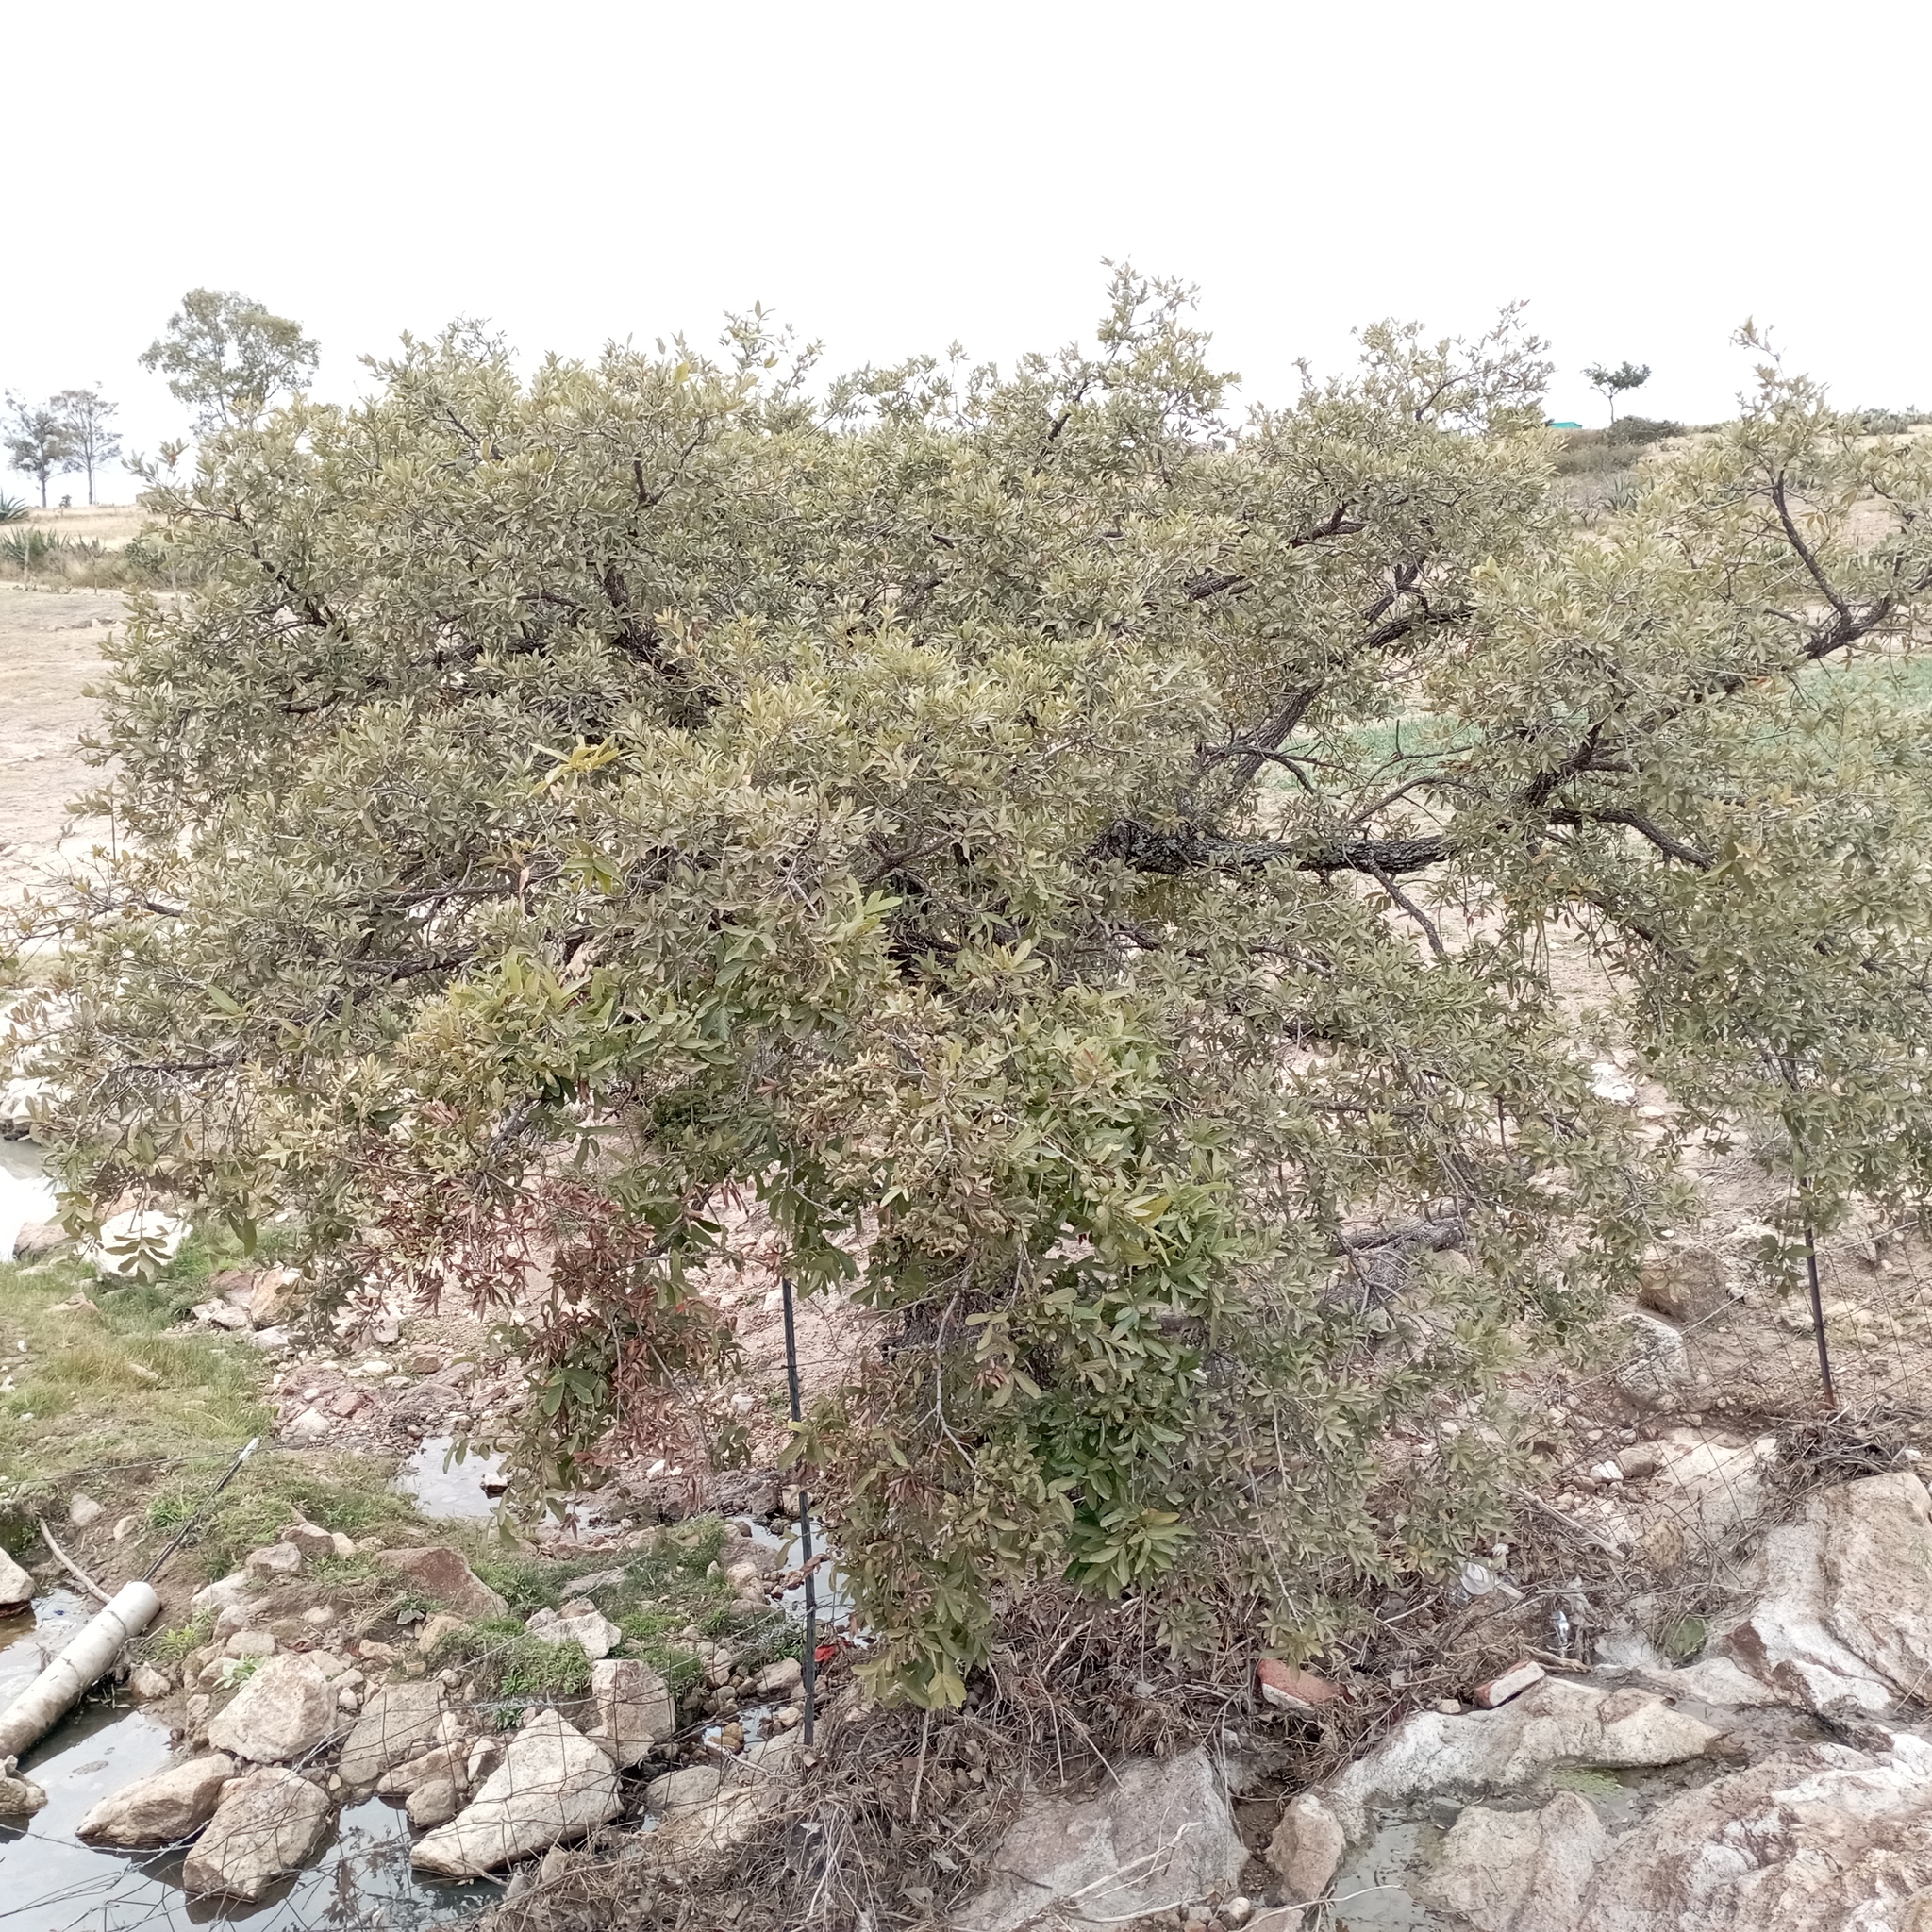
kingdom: Plantae
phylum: Tracheophyta
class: Magnoliopsida
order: Fagales
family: Fagaceae
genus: Quercus
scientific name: Quercus
